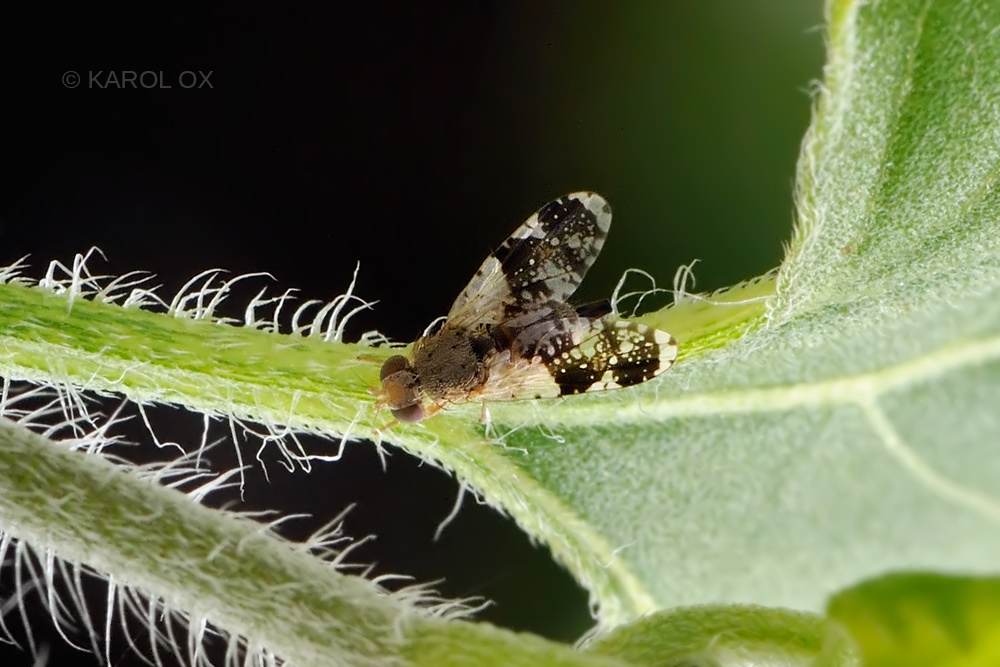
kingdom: Animalia
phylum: Arthropoda
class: Insecta
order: Diptera
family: Tephritidae
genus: Tephritis
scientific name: Tephritis formosa
